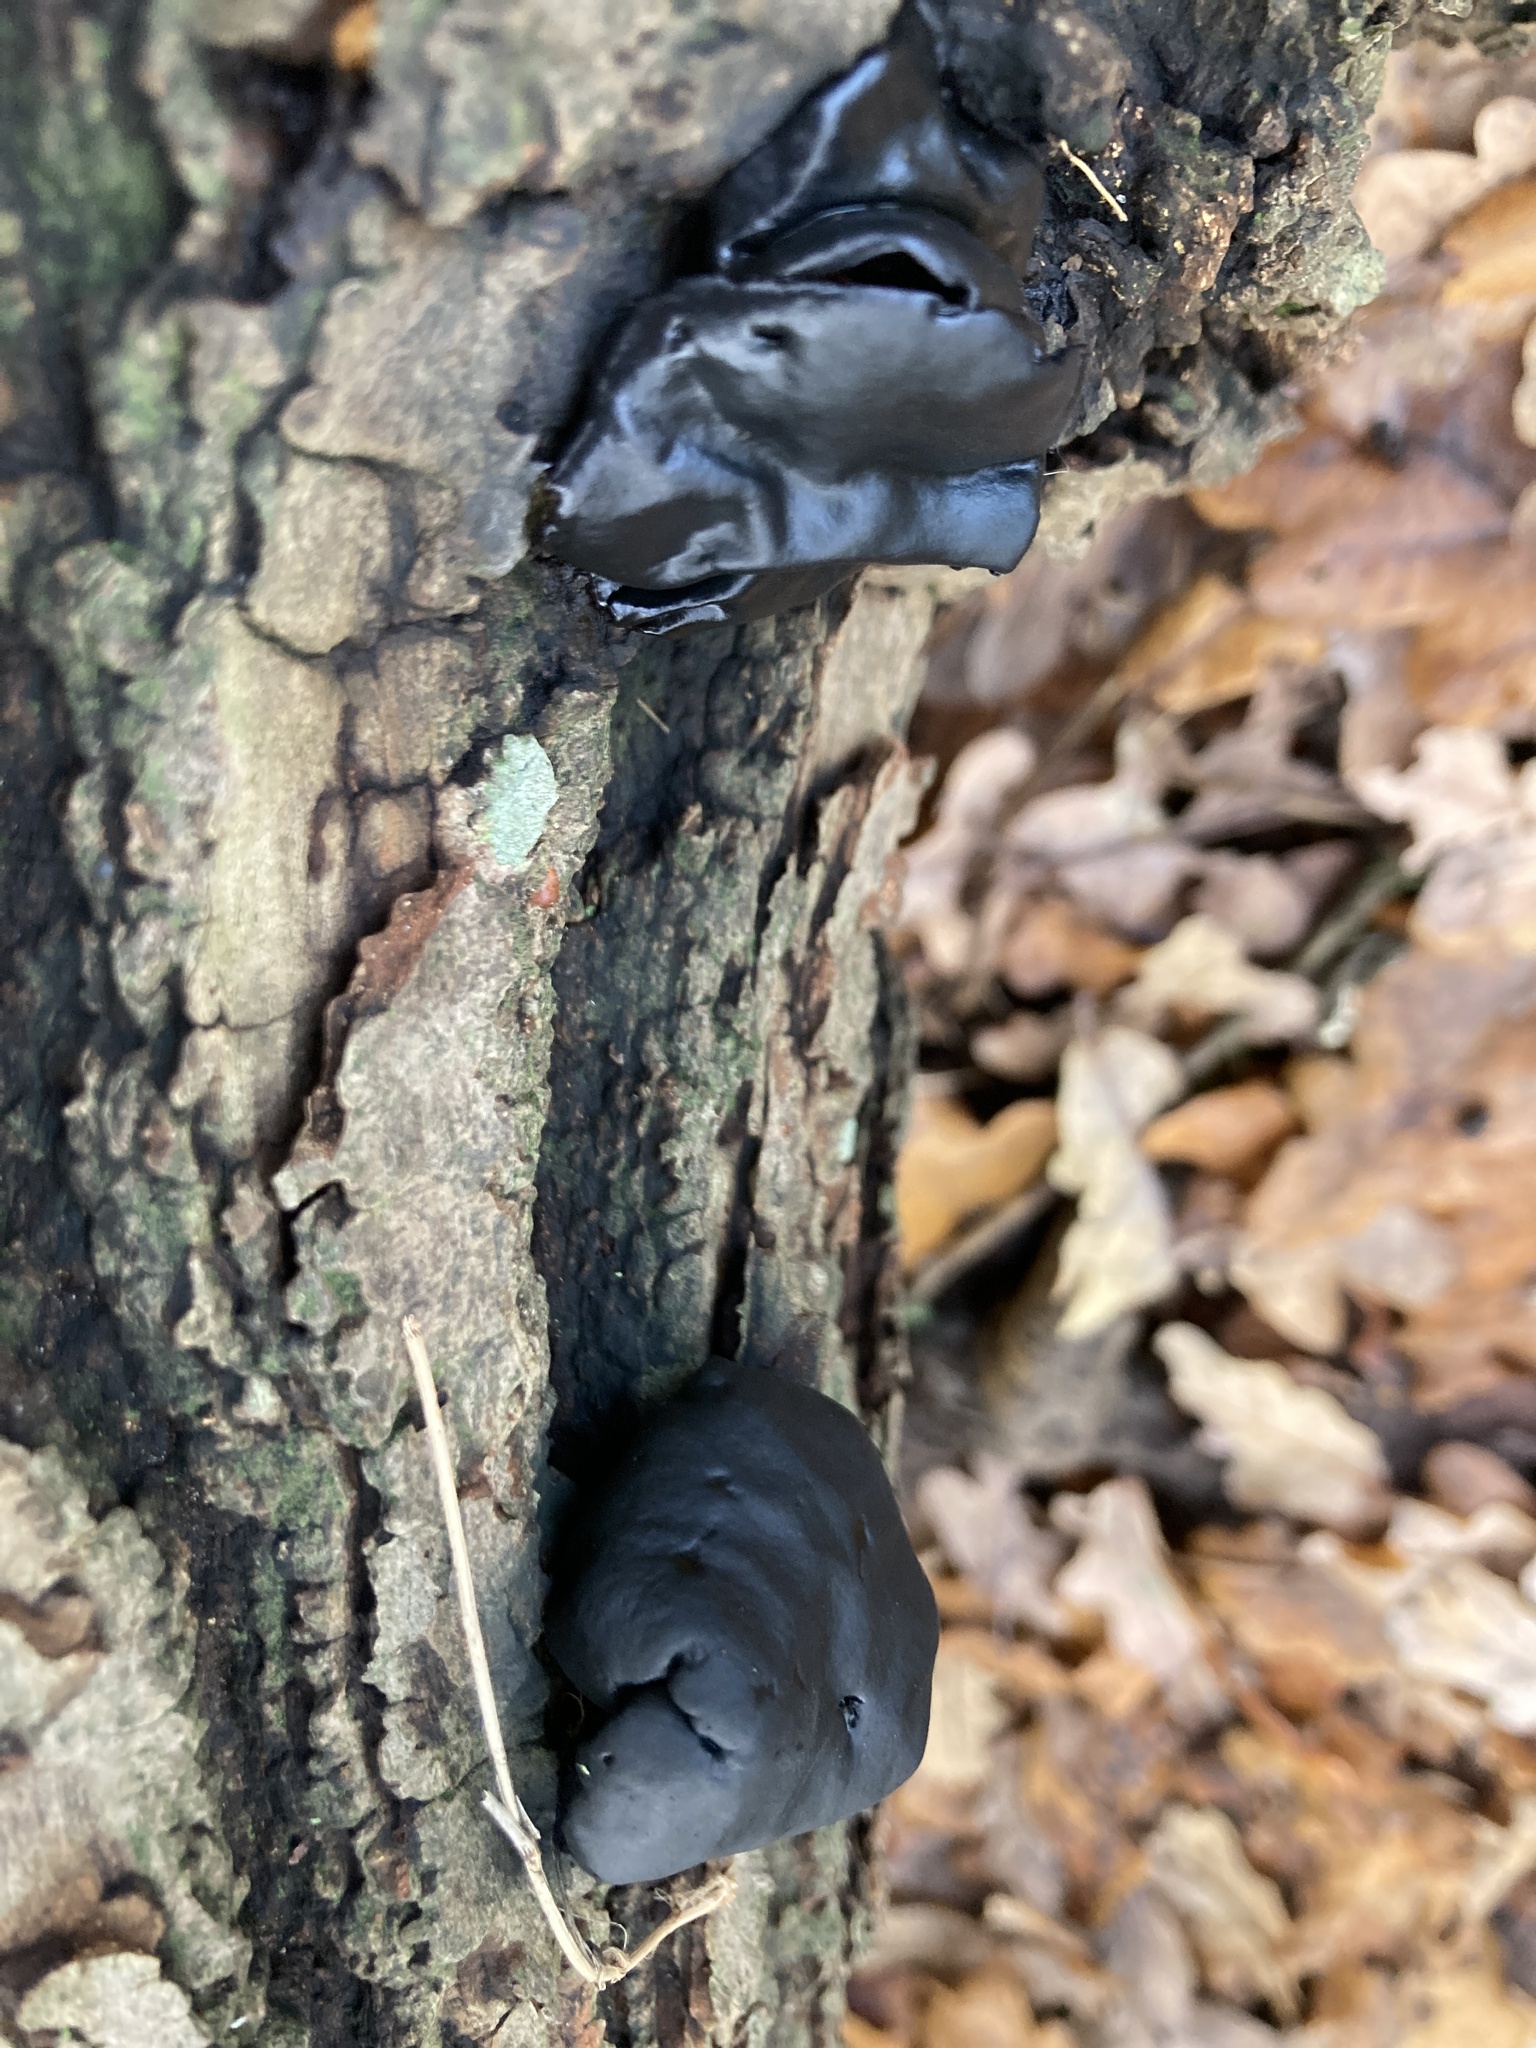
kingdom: Fungi
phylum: Ascomycota
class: Leotiomycetes
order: Phacidiales
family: Phacidiaceae
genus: Bulgaria
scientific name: Bulgaria inquinans
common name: Black bulgar
